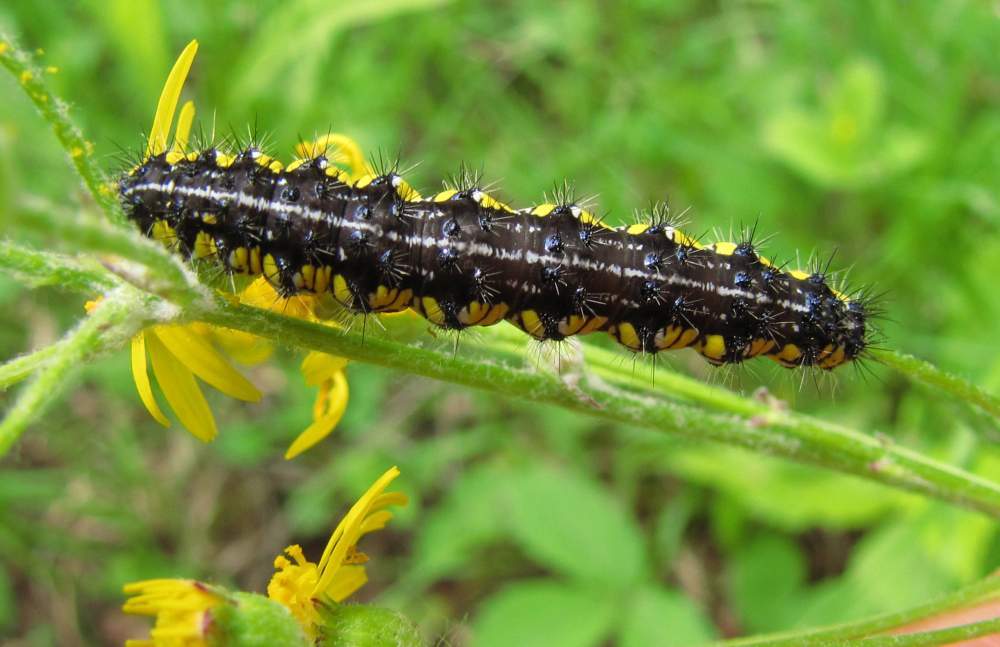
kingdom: Animalia
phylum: Arthropoda
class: Insecta
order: Lepidoptera
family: Erebidae
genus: Haploa
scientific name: Haploa contigua
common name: Neighbor moth
